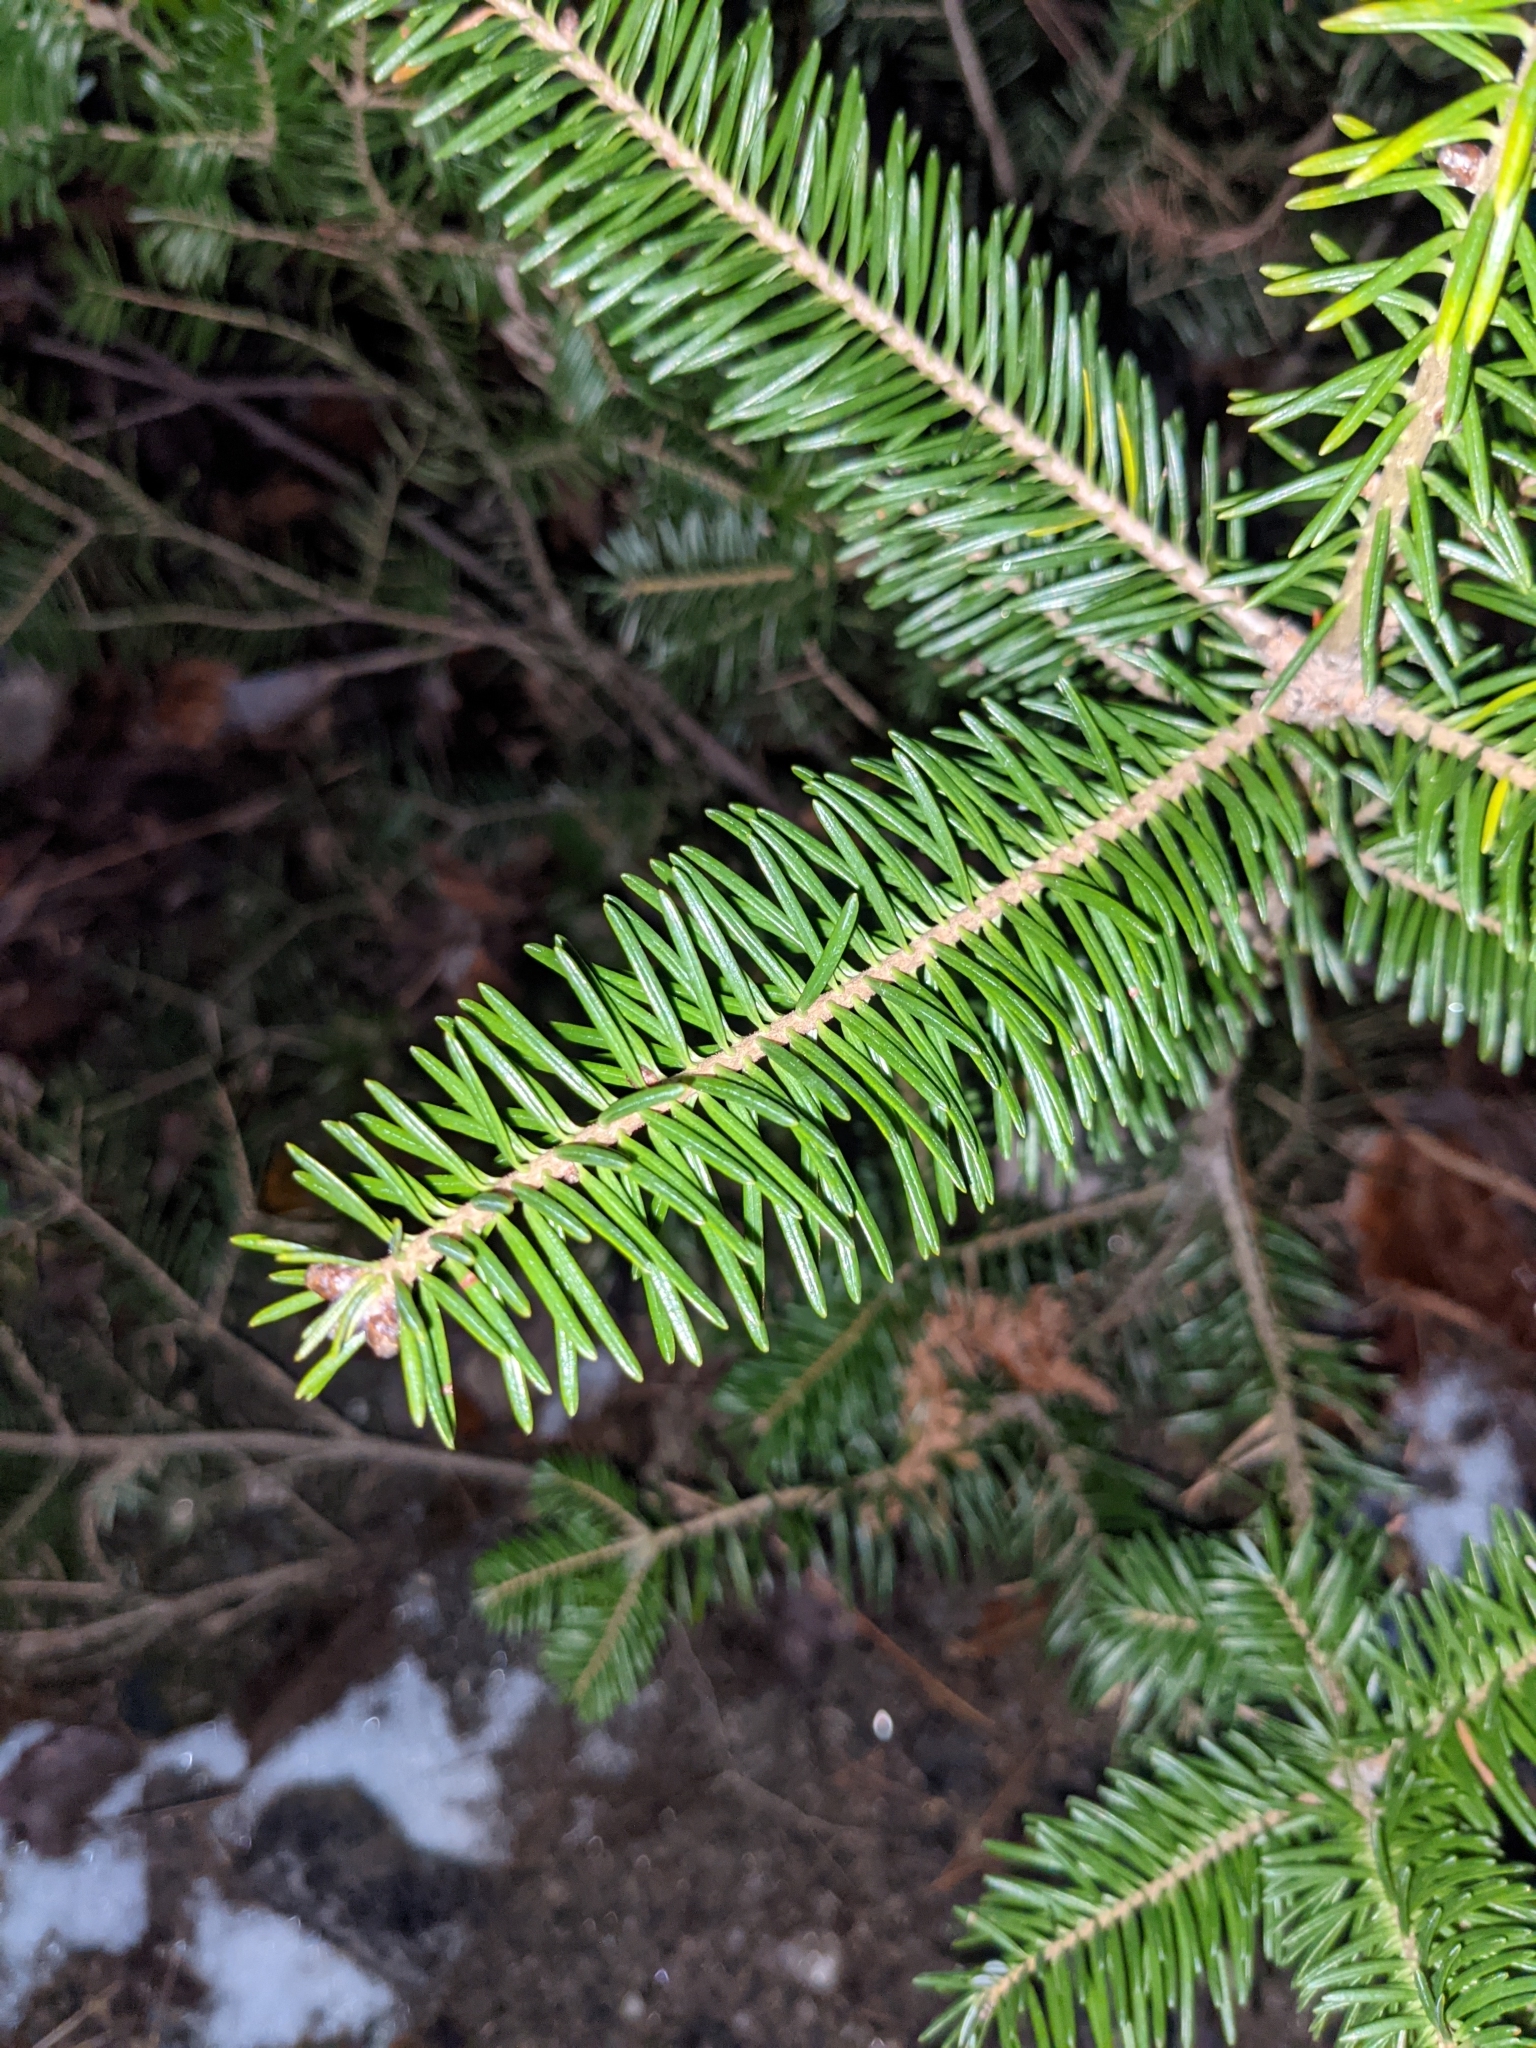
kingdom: Plantae
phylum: Tracheophyta
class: Pinopsida
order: Pinales
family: Pinaceae
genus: Abies
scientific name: Abies balsamea
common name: Balsam fir
